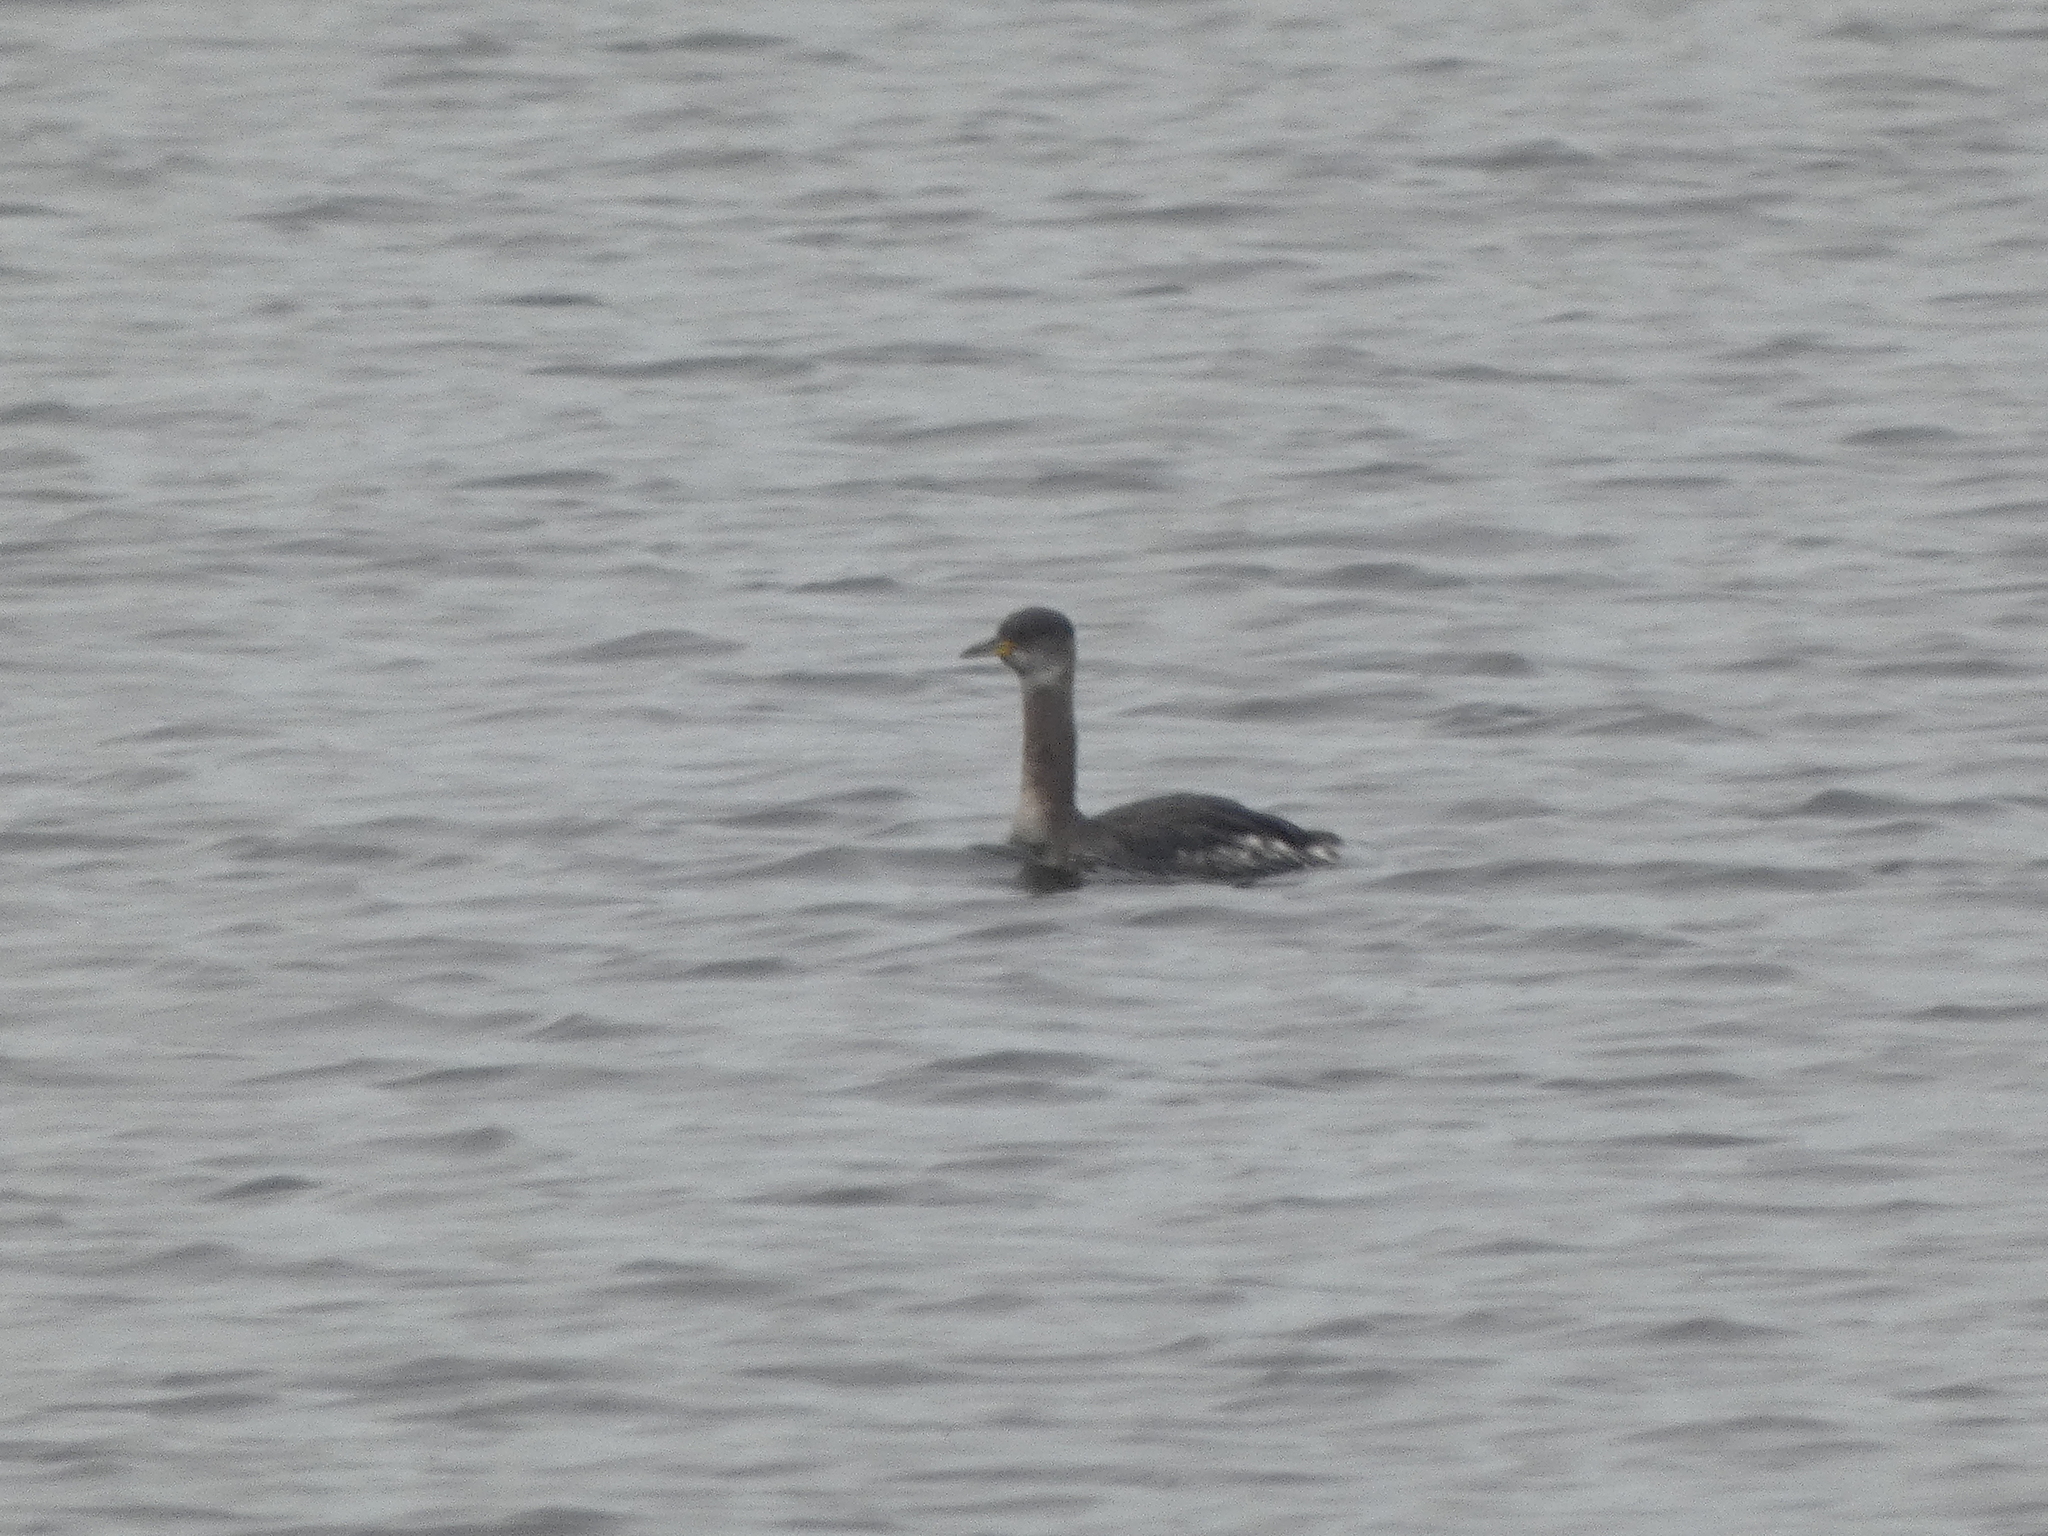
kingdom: Animalia
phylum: Chordata
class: Aves
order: Podicipediformes
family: Podicipedidae
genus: Podiceps
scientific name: Podiceps grisegena
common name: Red-necked grebe
